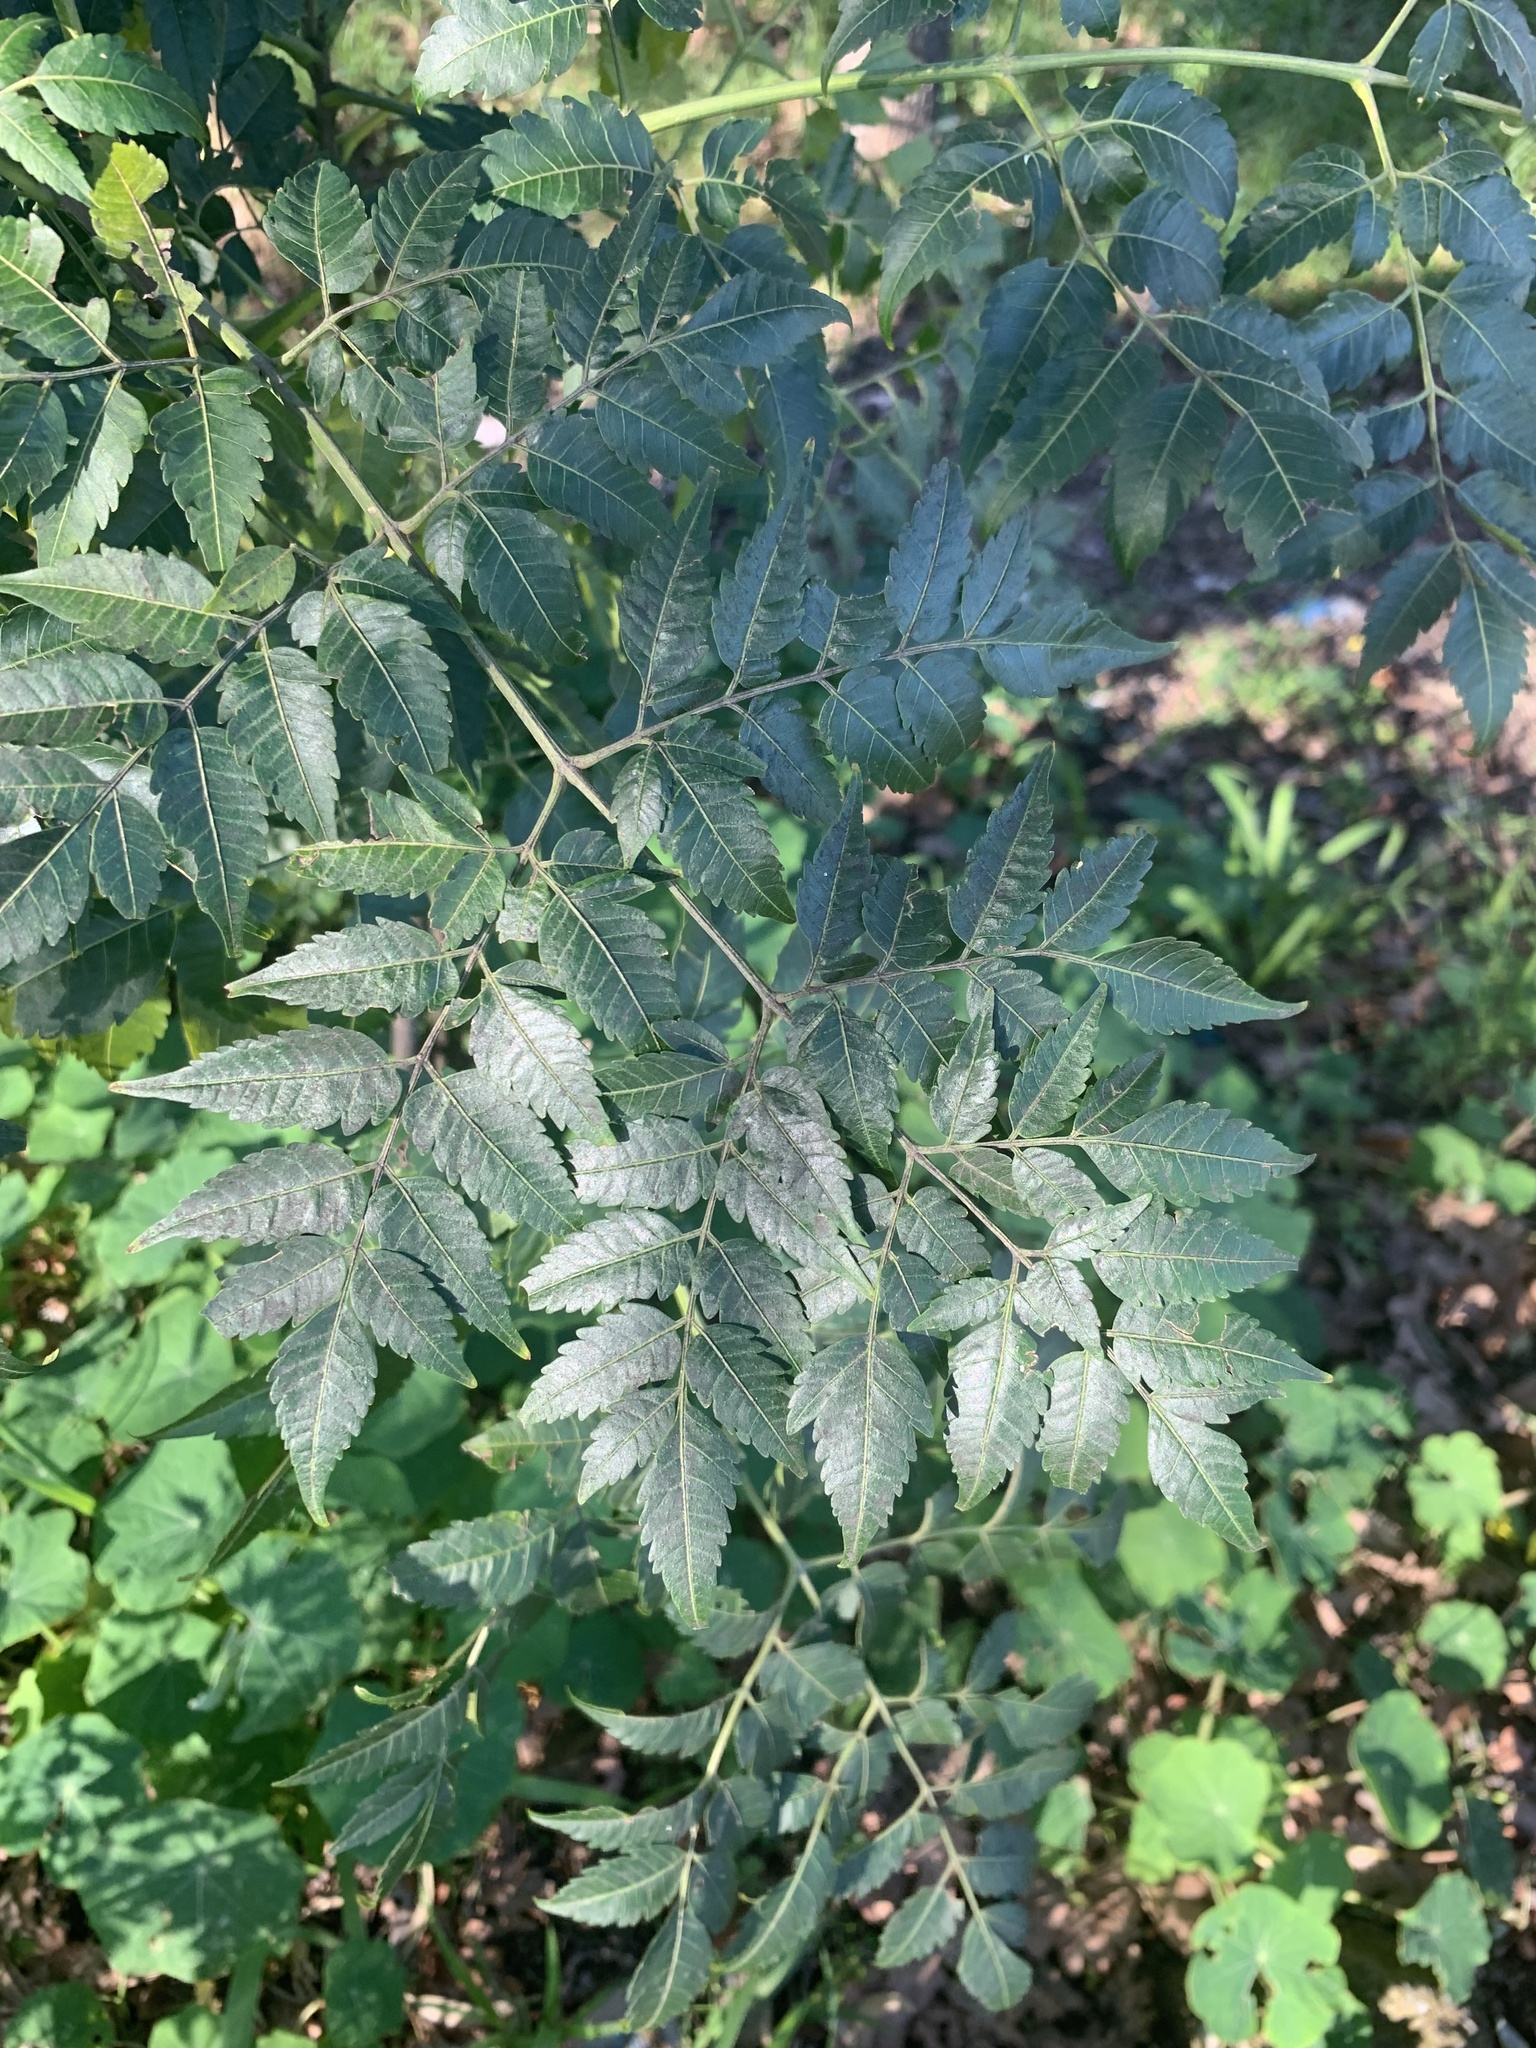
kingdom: Plantae
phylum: Tracheophyta
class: Magnoliopsida
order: Sapindales
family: Meliaceae
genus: Melia
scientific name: Melia azedarach
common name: Chinaberrytree
